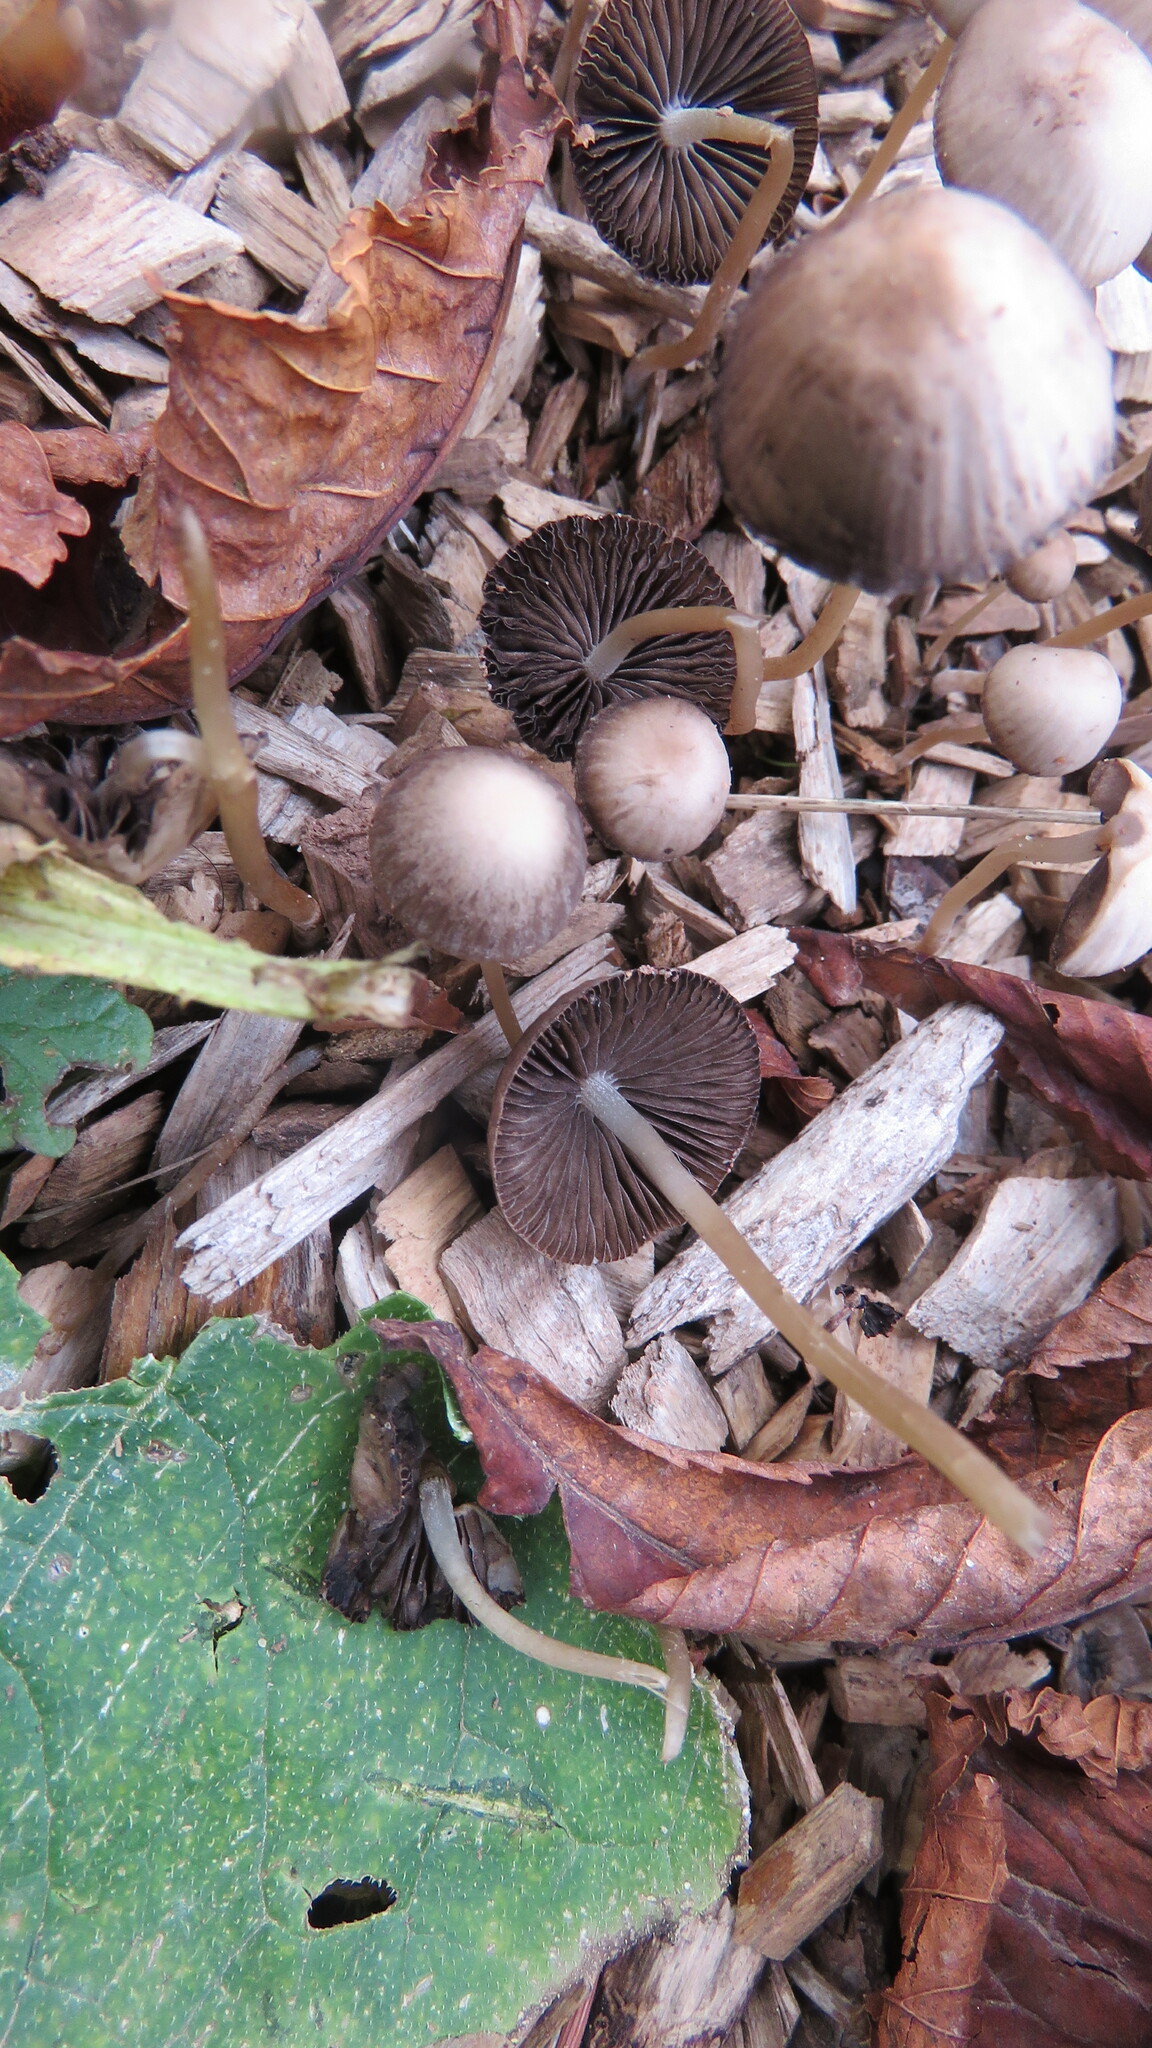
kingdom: Fungi
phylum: Basidiomycota
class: Agaricomycetes
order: Agaricales
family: Psathyrellaceae
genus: Parasola
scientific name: Parasola conopilea
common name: Conical brittlestem
